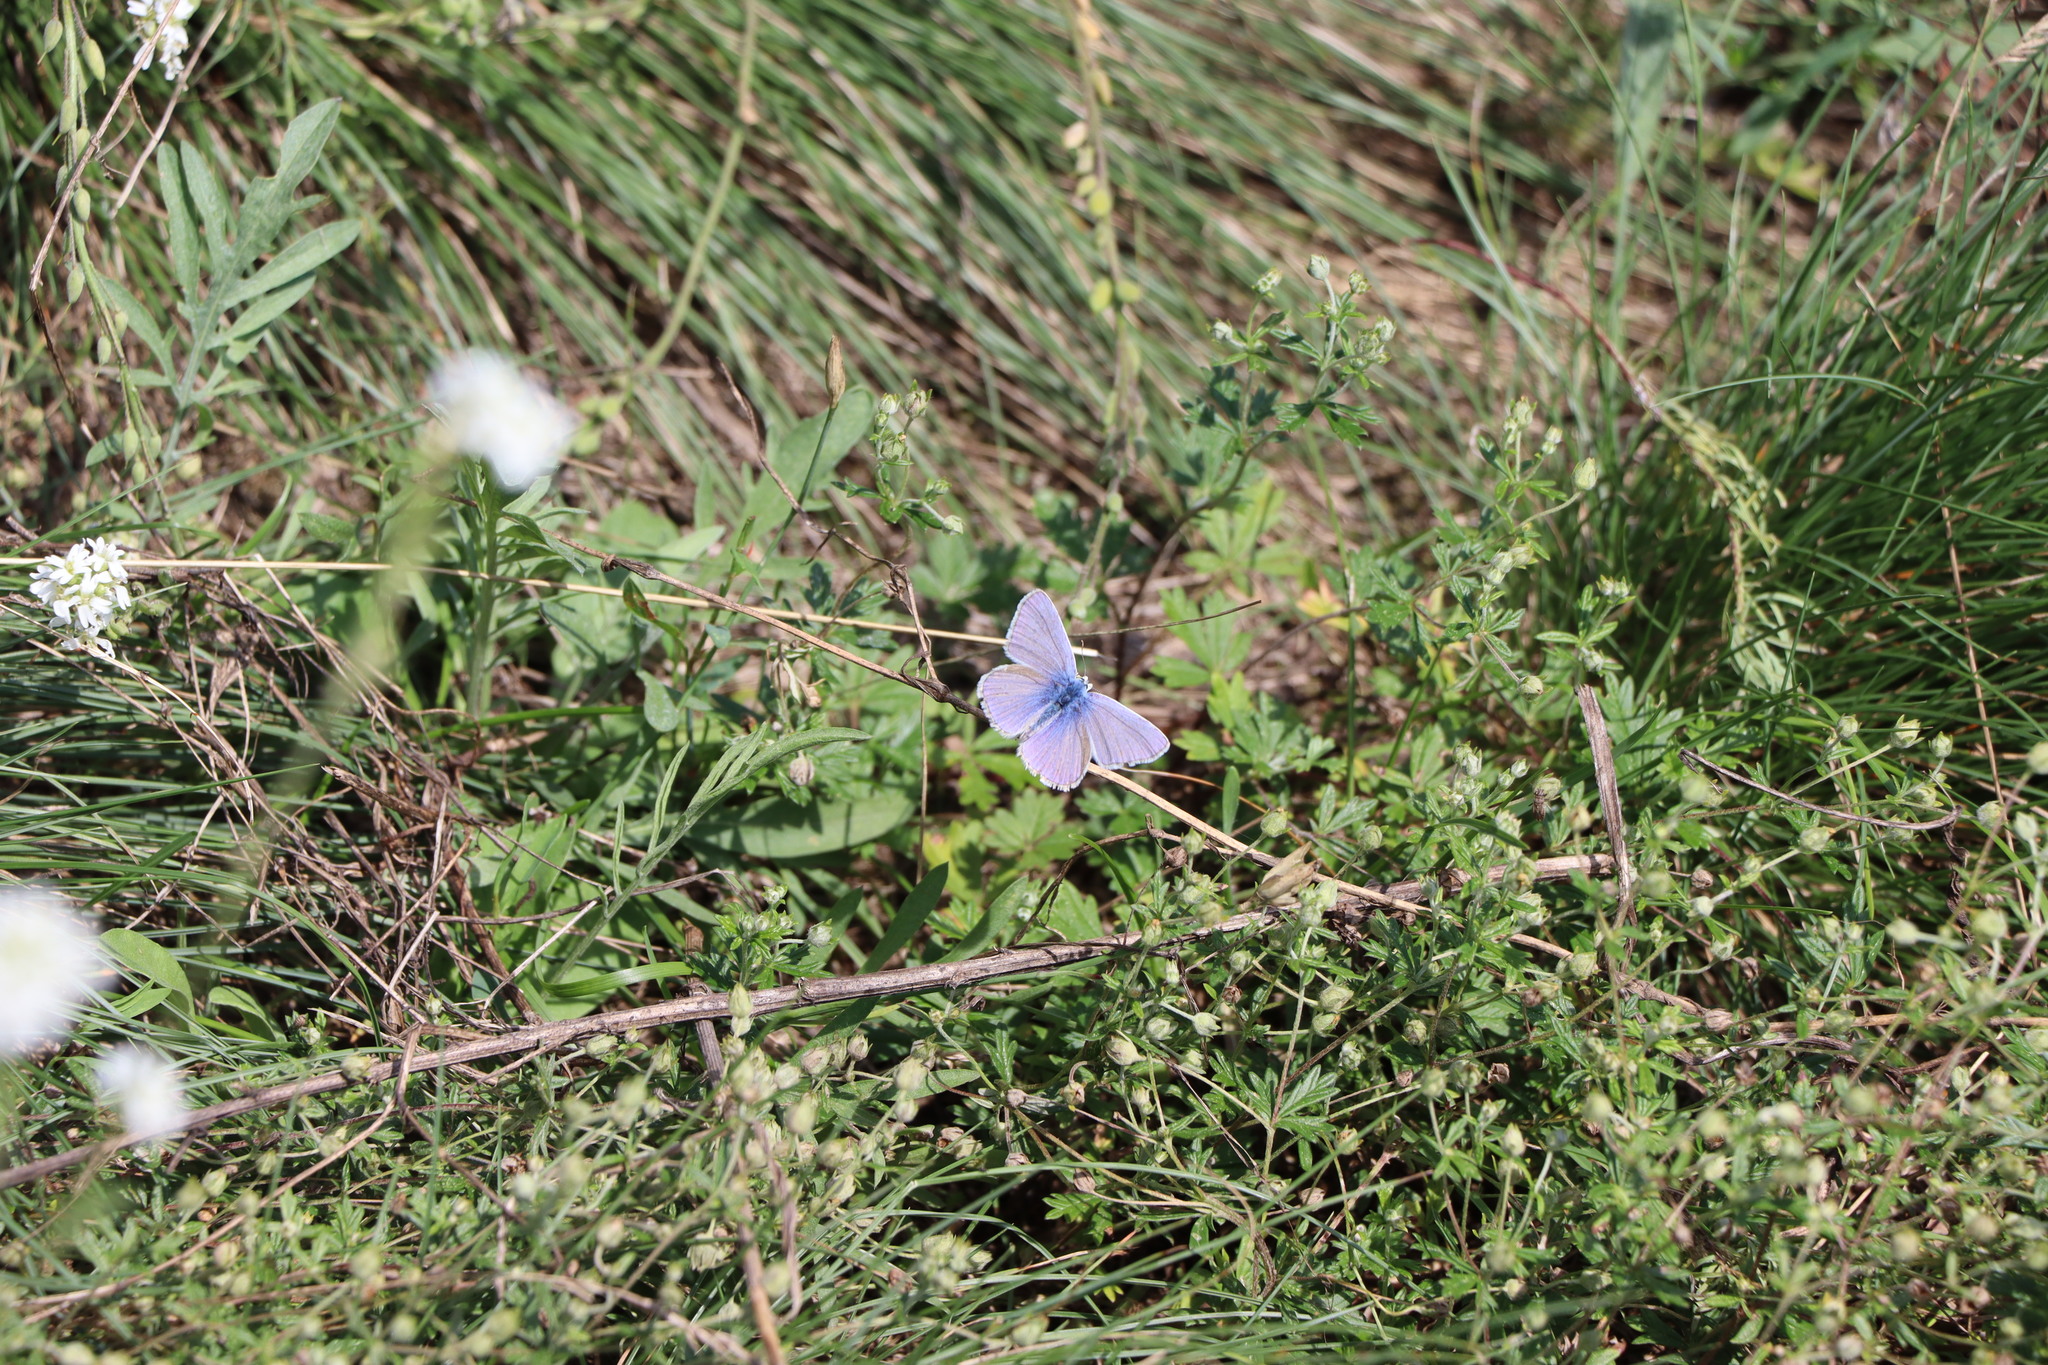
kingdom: Animalia
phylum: Arthropoda
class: Insecta
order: Lepidoptera
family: Lycaenidae
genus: Polyommatus
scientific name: Polyommatus icarus
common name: Common blue
